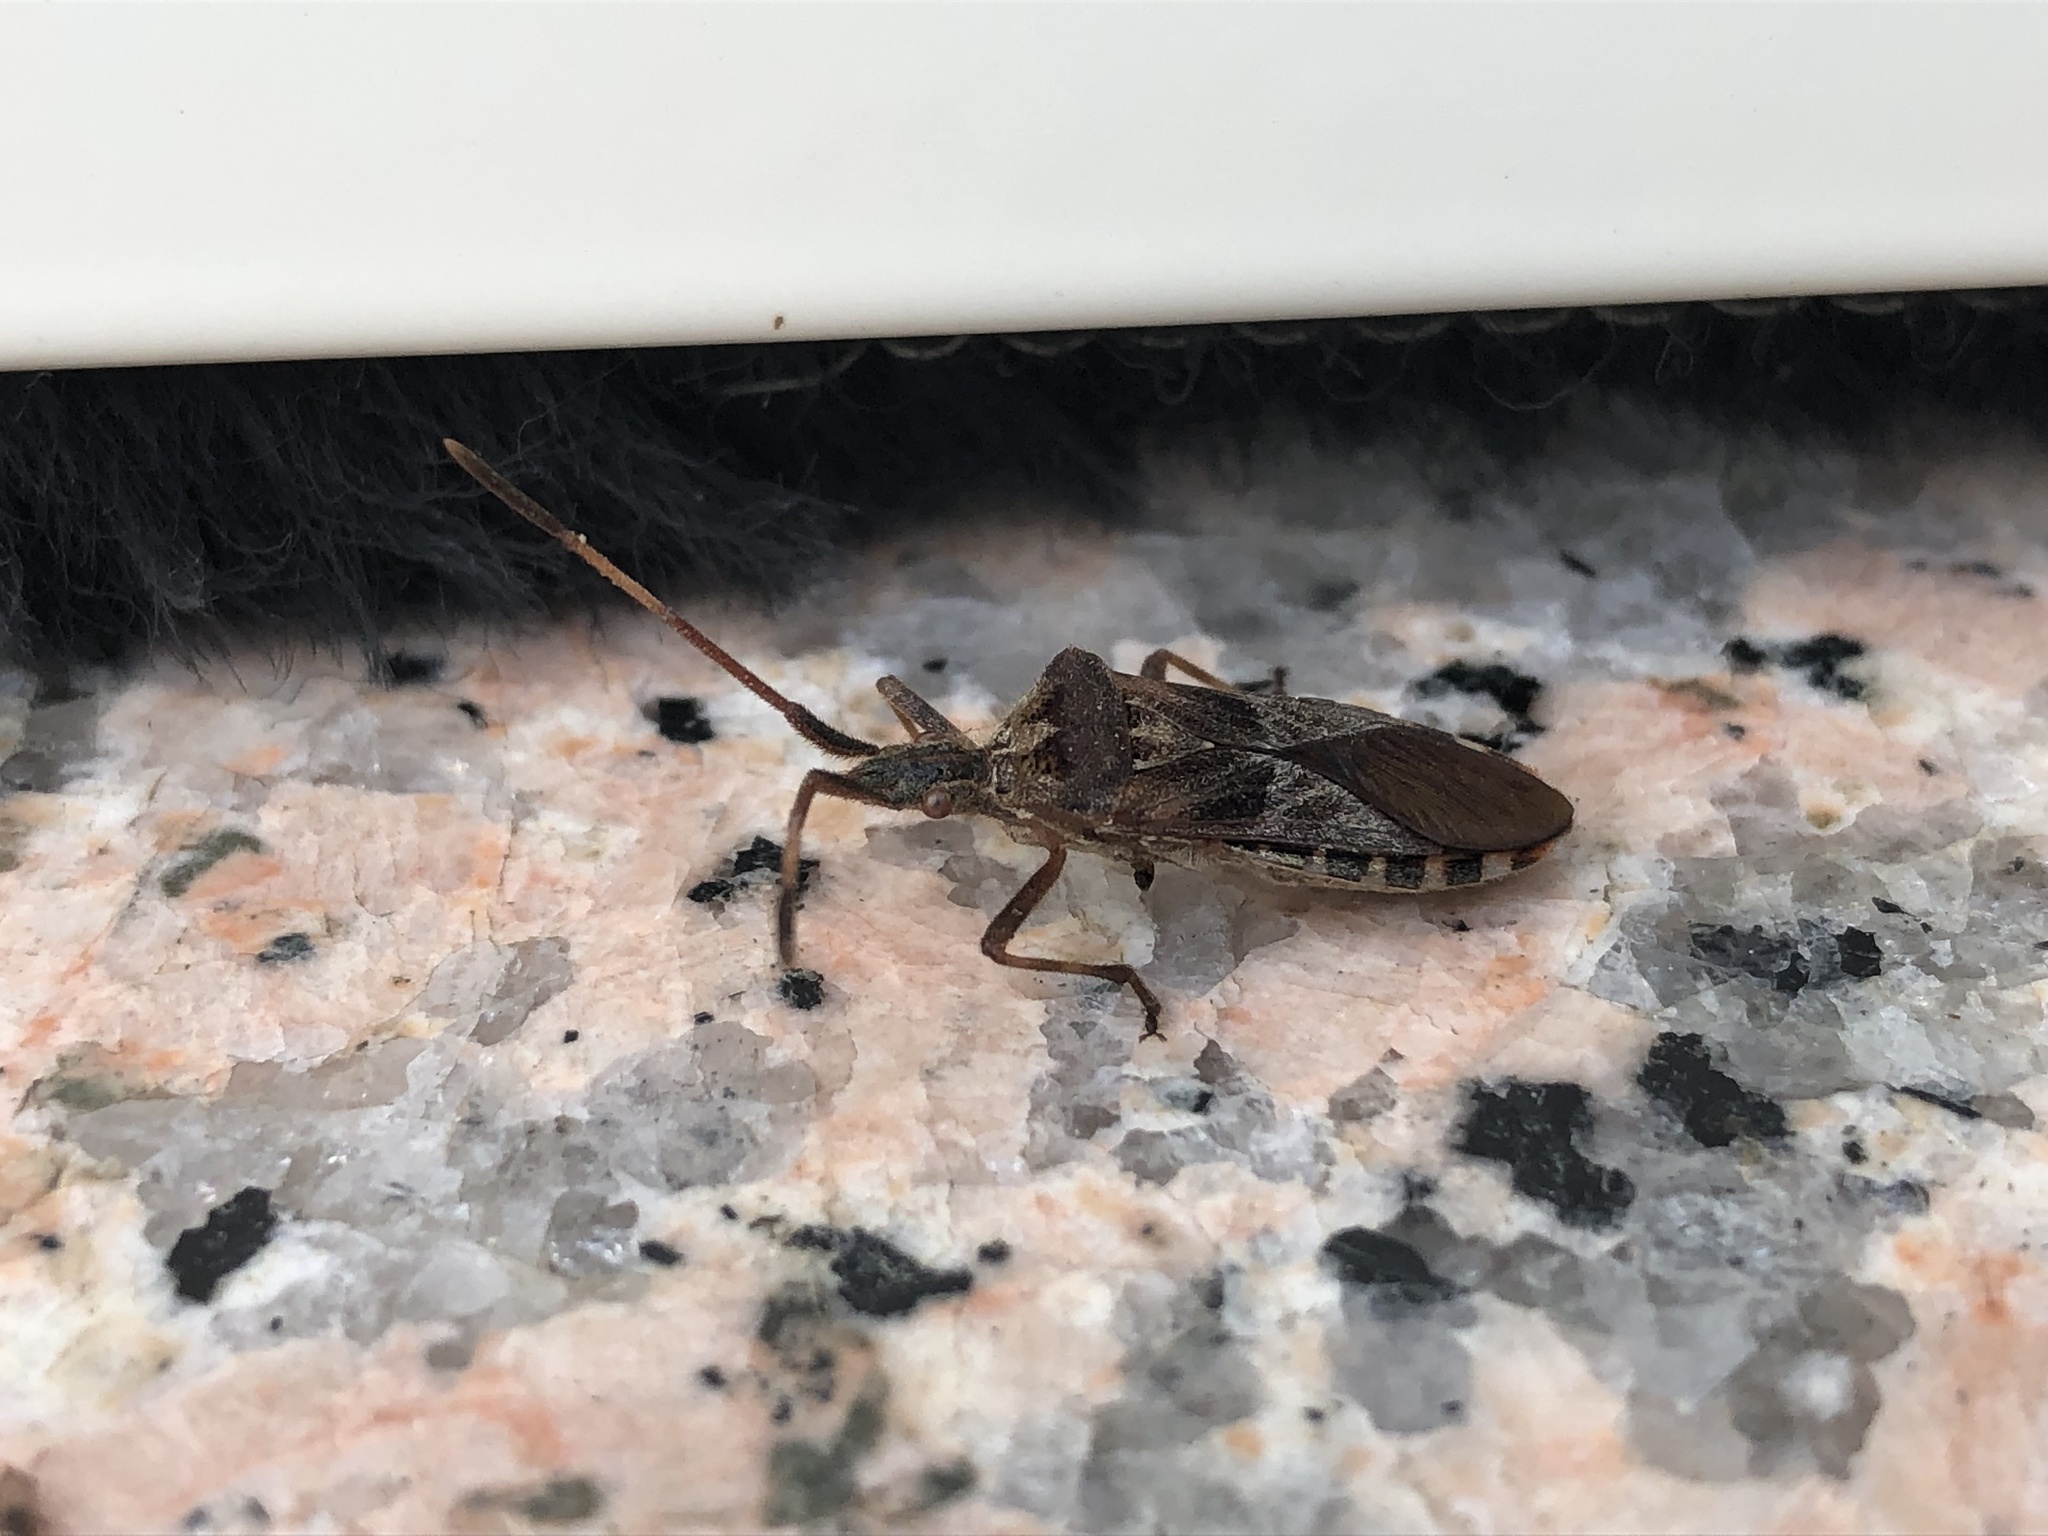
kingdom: Animalia
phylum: Arthropoda
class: Insecta
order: Hemiptera
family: Coreidae
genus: Leptoglossus
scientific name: Leptoglossus occidentalis
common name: Western conifer-seed bug
